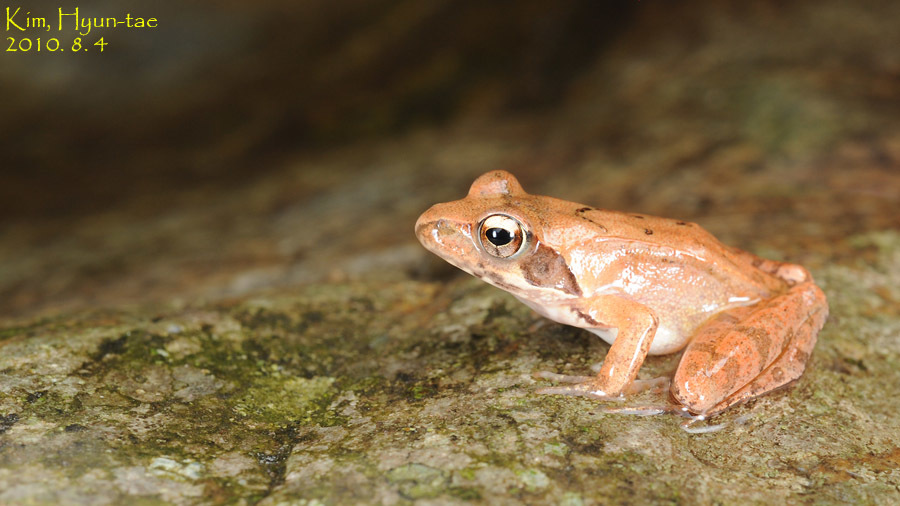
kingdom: Animalia
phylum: Chordata
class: Amphibia
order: Anura
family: Ranidae
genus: Rana
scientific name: Rana uenoi
